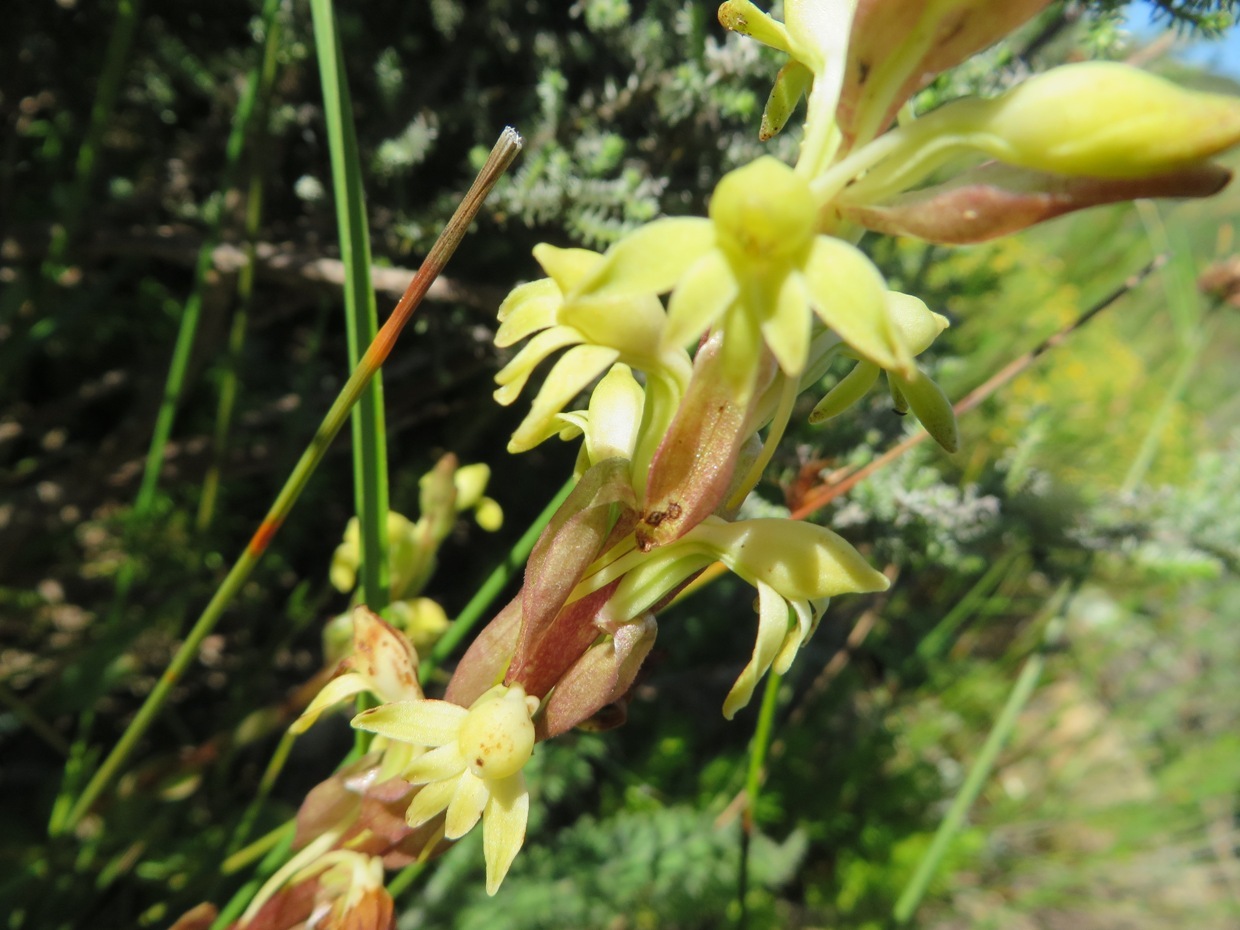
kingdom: Plantae
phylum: Tracheophyta
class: Liliopsida
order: Asparagales
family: Orchidaceae
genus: Satyrium
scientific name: Satyrium bicorne
